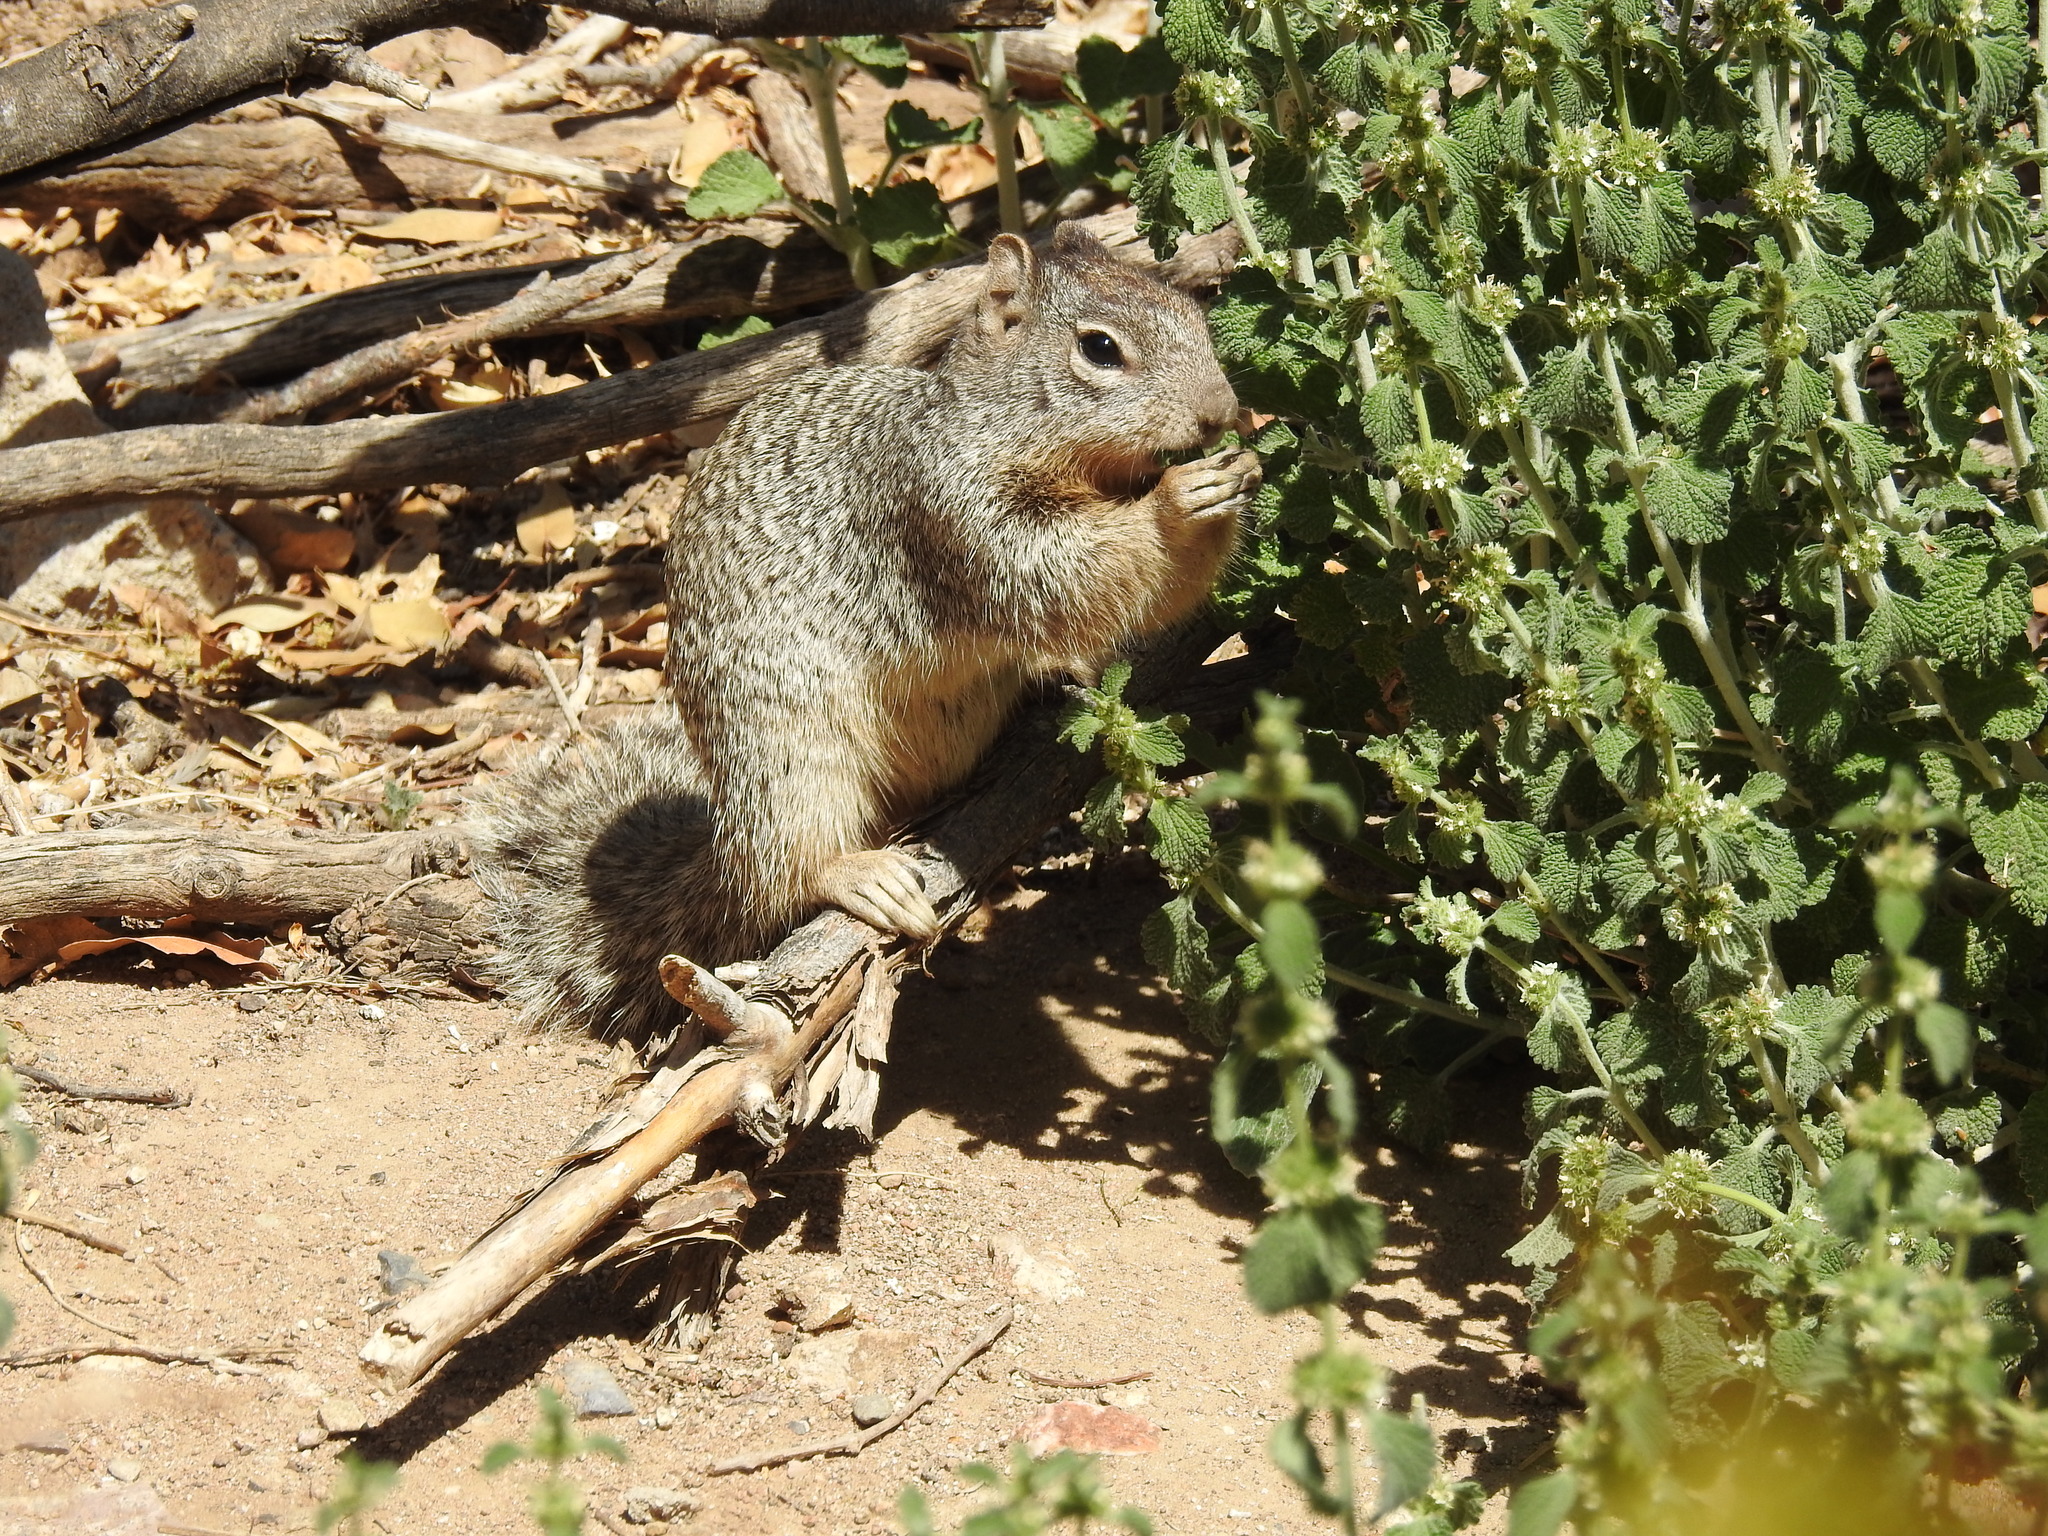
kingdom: Animalia
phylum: Chordata
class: Mammalia
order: Rodentia
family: Sciuridae
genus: Otospermophilus
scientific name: Otospermophilus variegatus
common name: Rock squirrel
